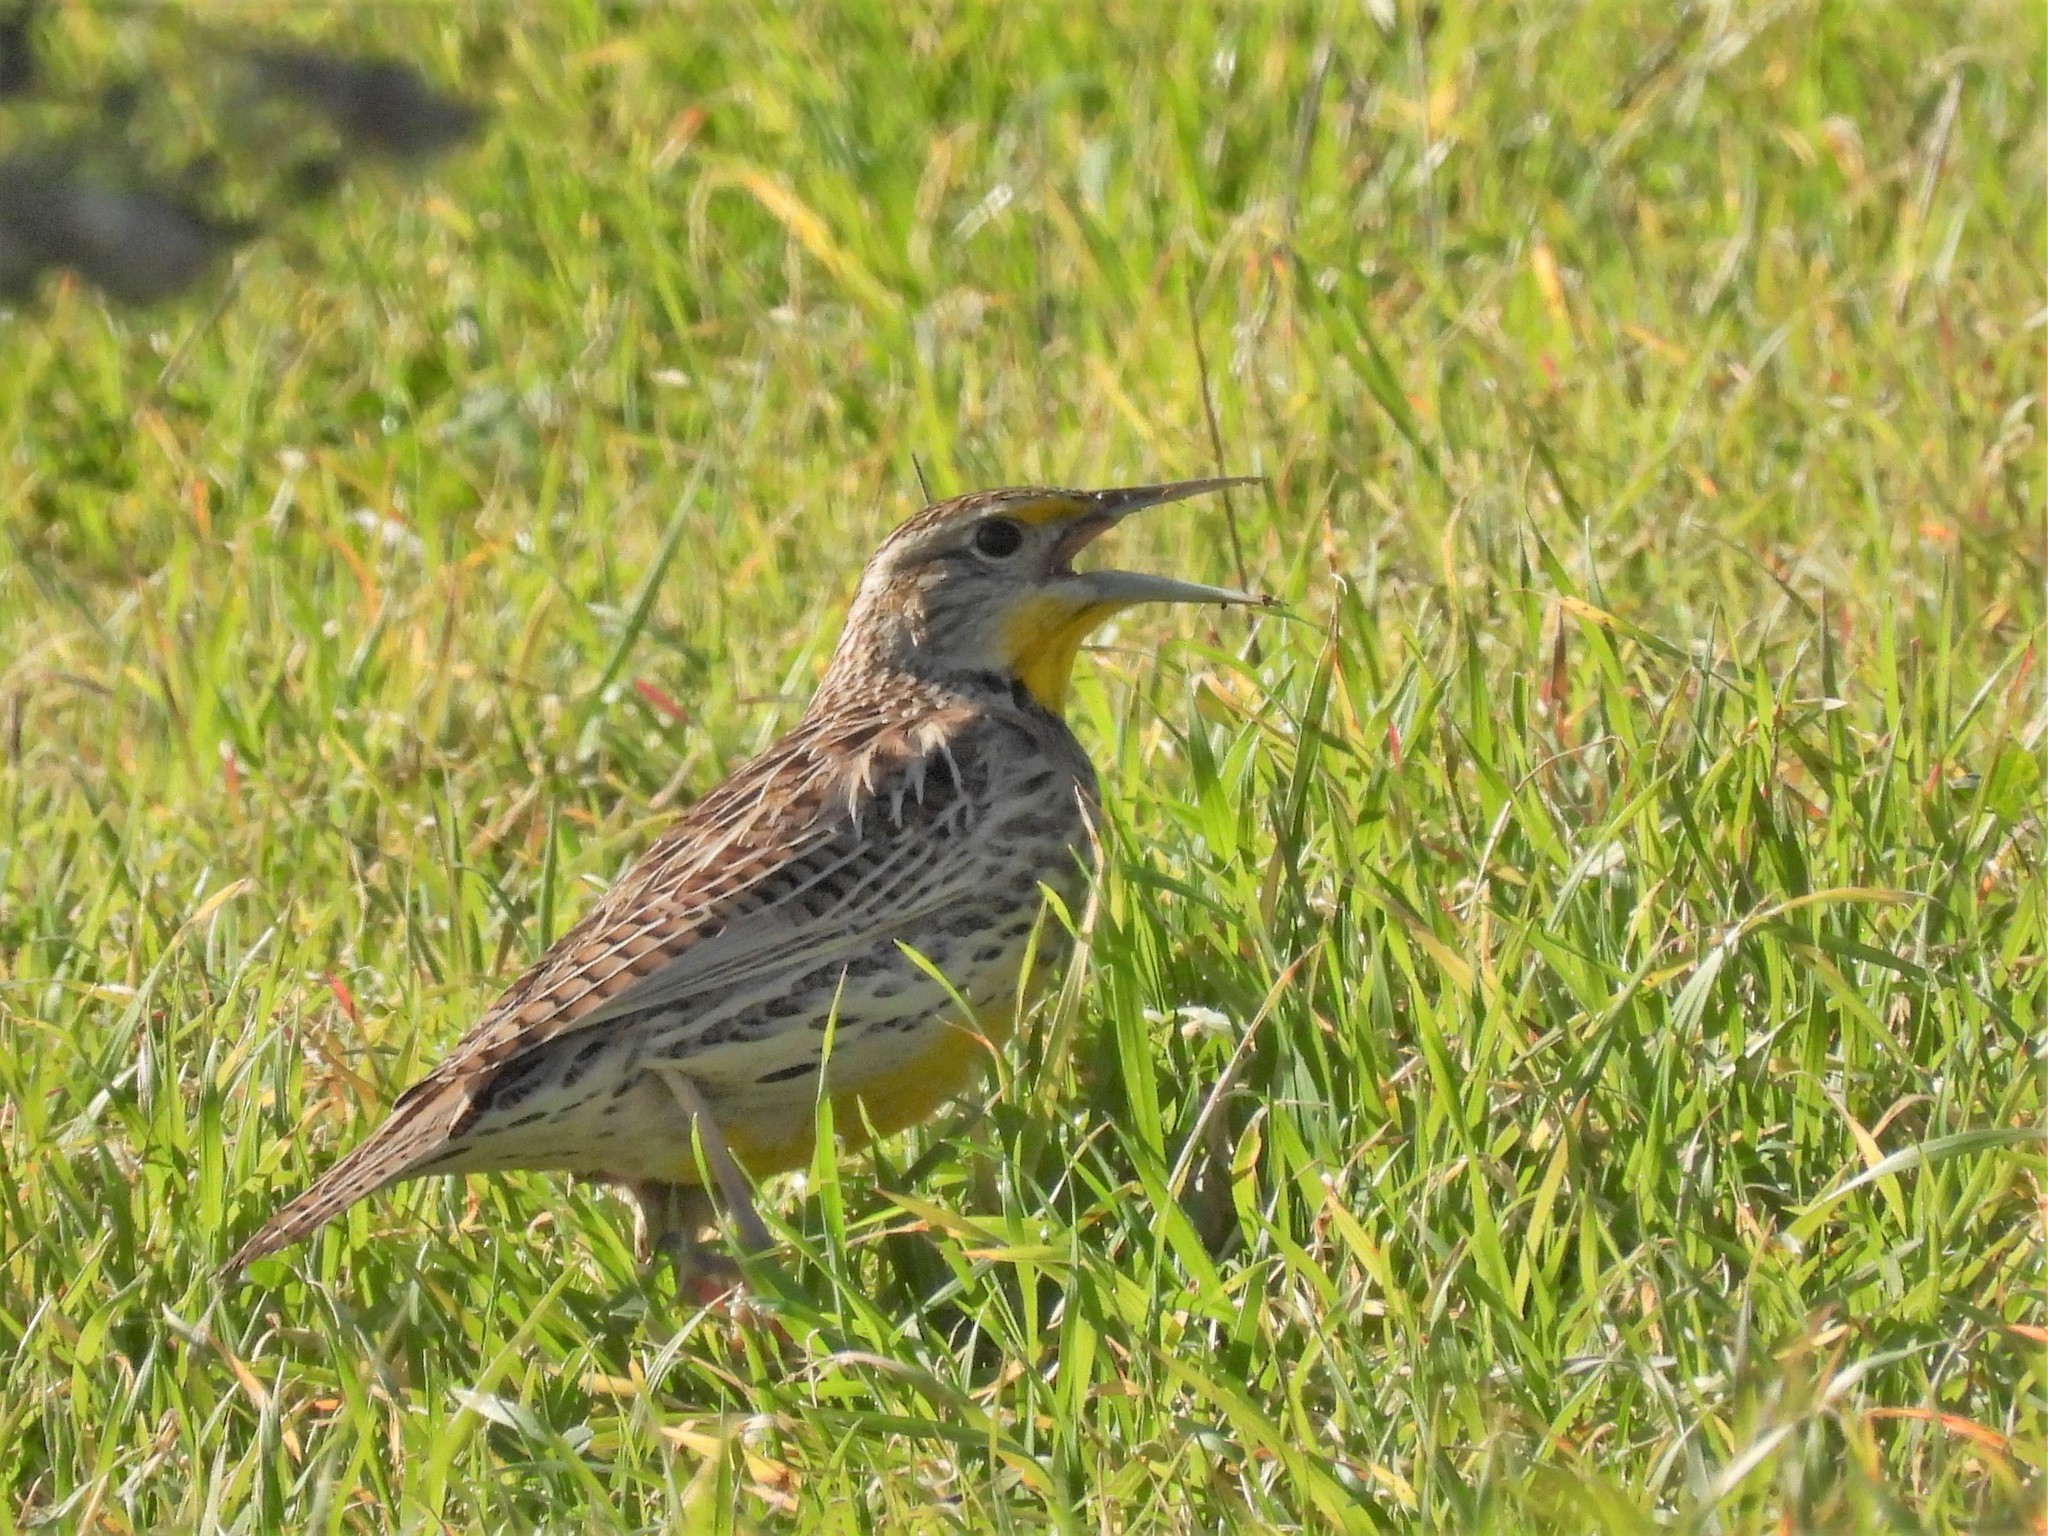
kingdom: Animalia
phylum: Chordata
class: Aves
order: Passeriformes
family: Icteridae
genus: Sturnella
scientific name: Sturnella neglecta
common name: Western meadowlark
